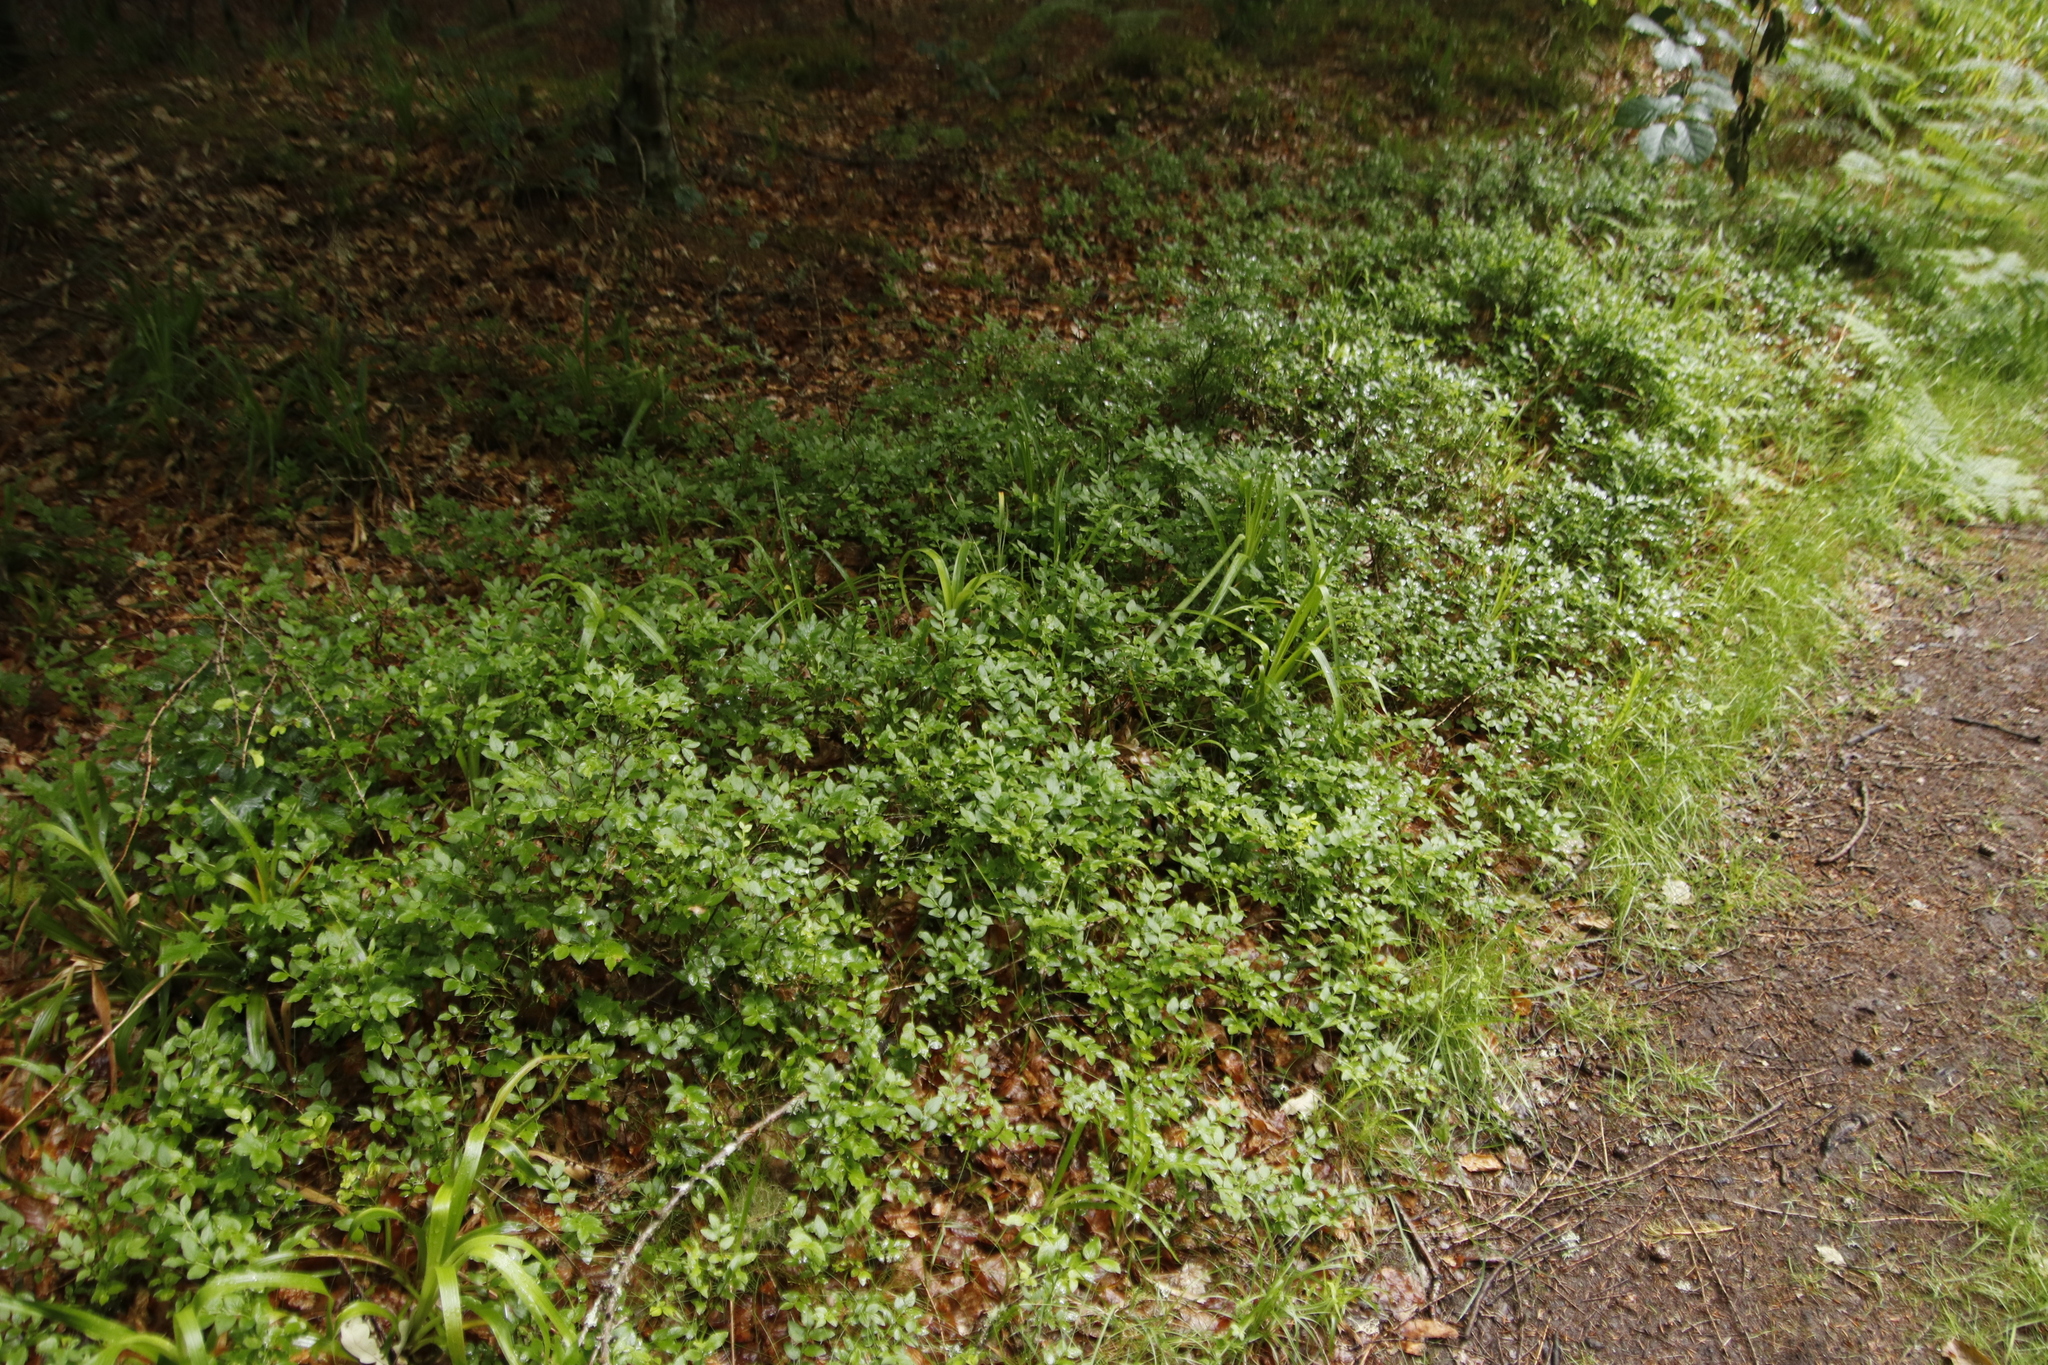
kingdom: Plantae
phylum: Tracheophyta
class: Magnoliopsida
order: Ericales
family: Ericaceae
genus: Vaccinium
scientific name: Vaccinium myrtillus
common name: Bilberry
